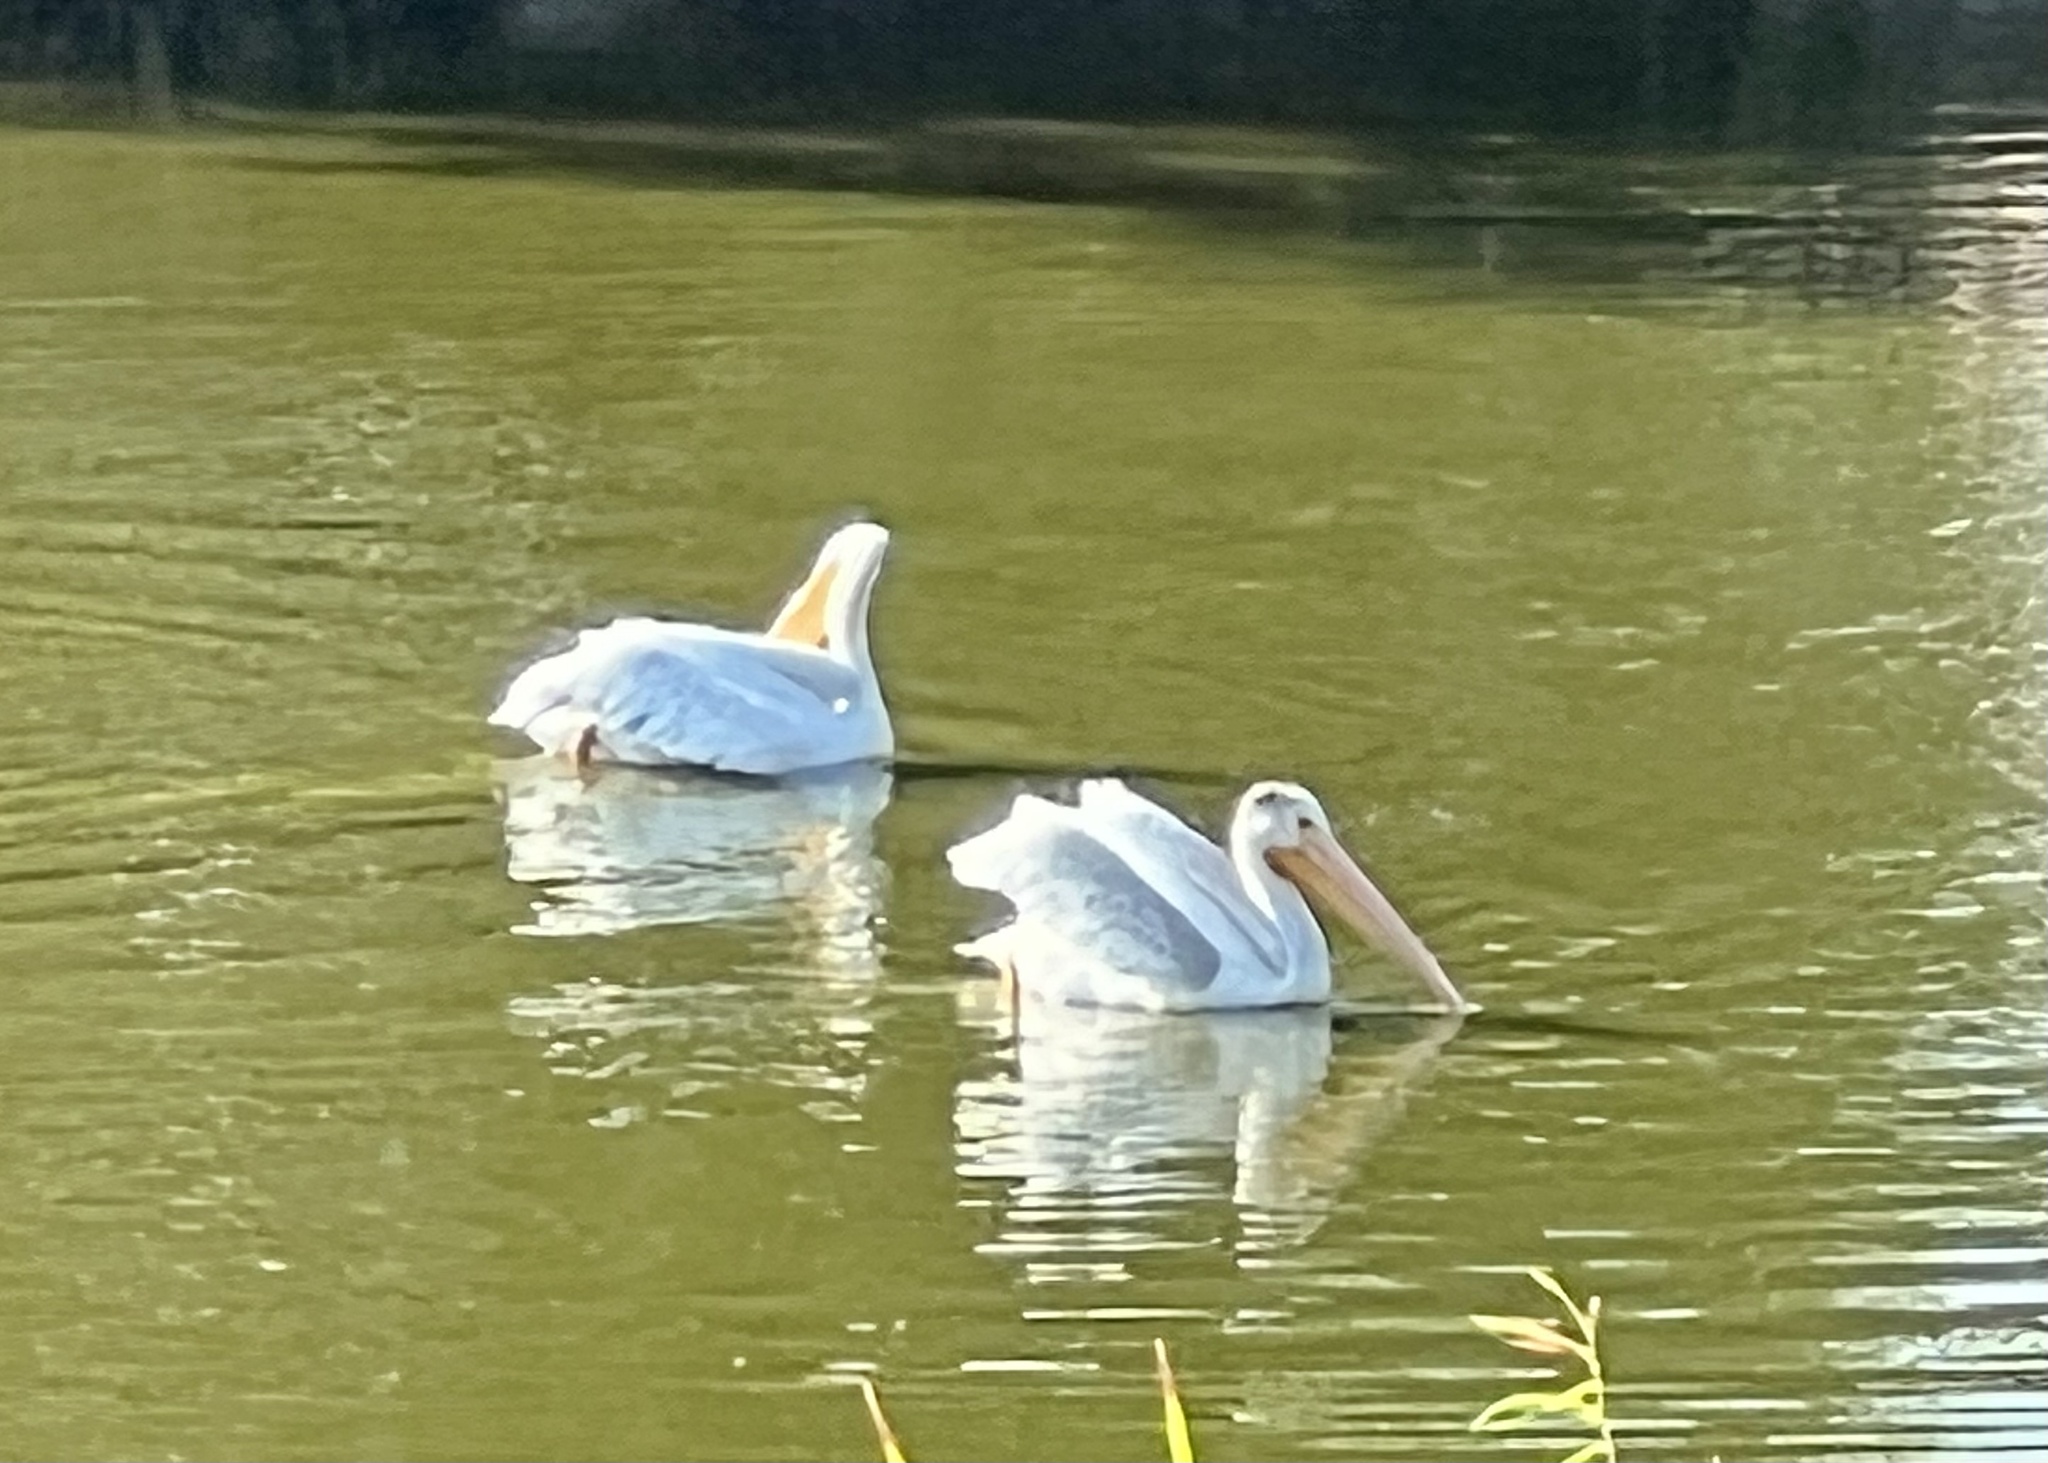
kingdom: Animalia
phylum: Chordata
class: Aves
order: Pelecaniformes
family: Pelecanidae
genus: Pelecanus
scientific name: Pelecanus erythrorhynchos
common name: American white pelican
